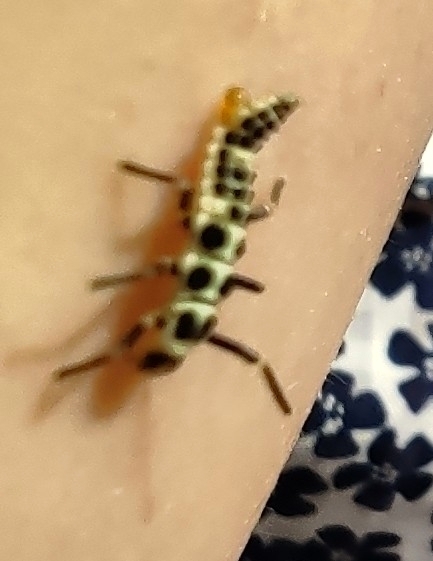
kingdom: Animalia
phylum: Arthropoda
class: Insecta
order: Coleoptera
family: Coccinellidae
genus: Calvia
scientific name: Calvia decemguttata
